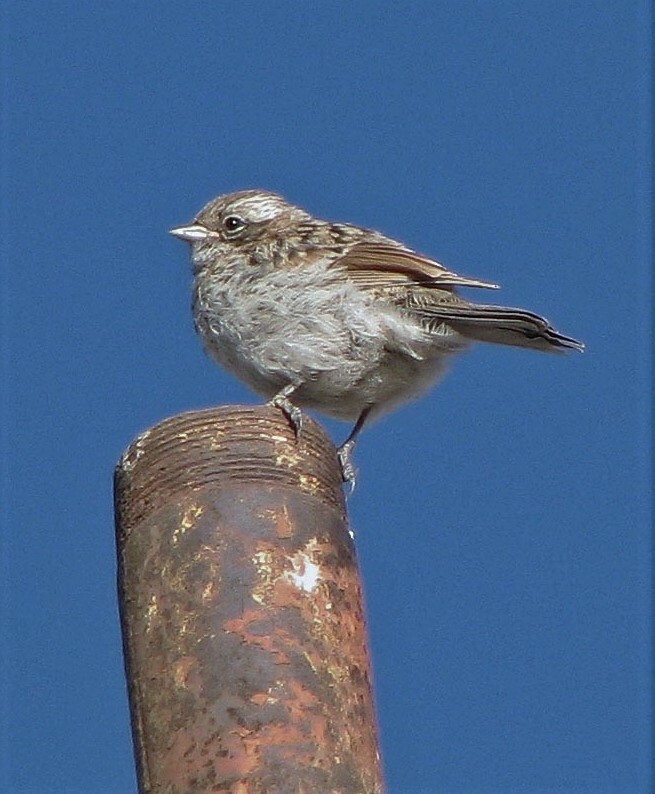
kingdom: Animalia
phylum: Chordata
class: Aves
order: Passeriformes
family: Passerellidae
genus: Zonotrichia
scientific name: Zonotrichia capensis
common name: Rufous-collared sparrow
